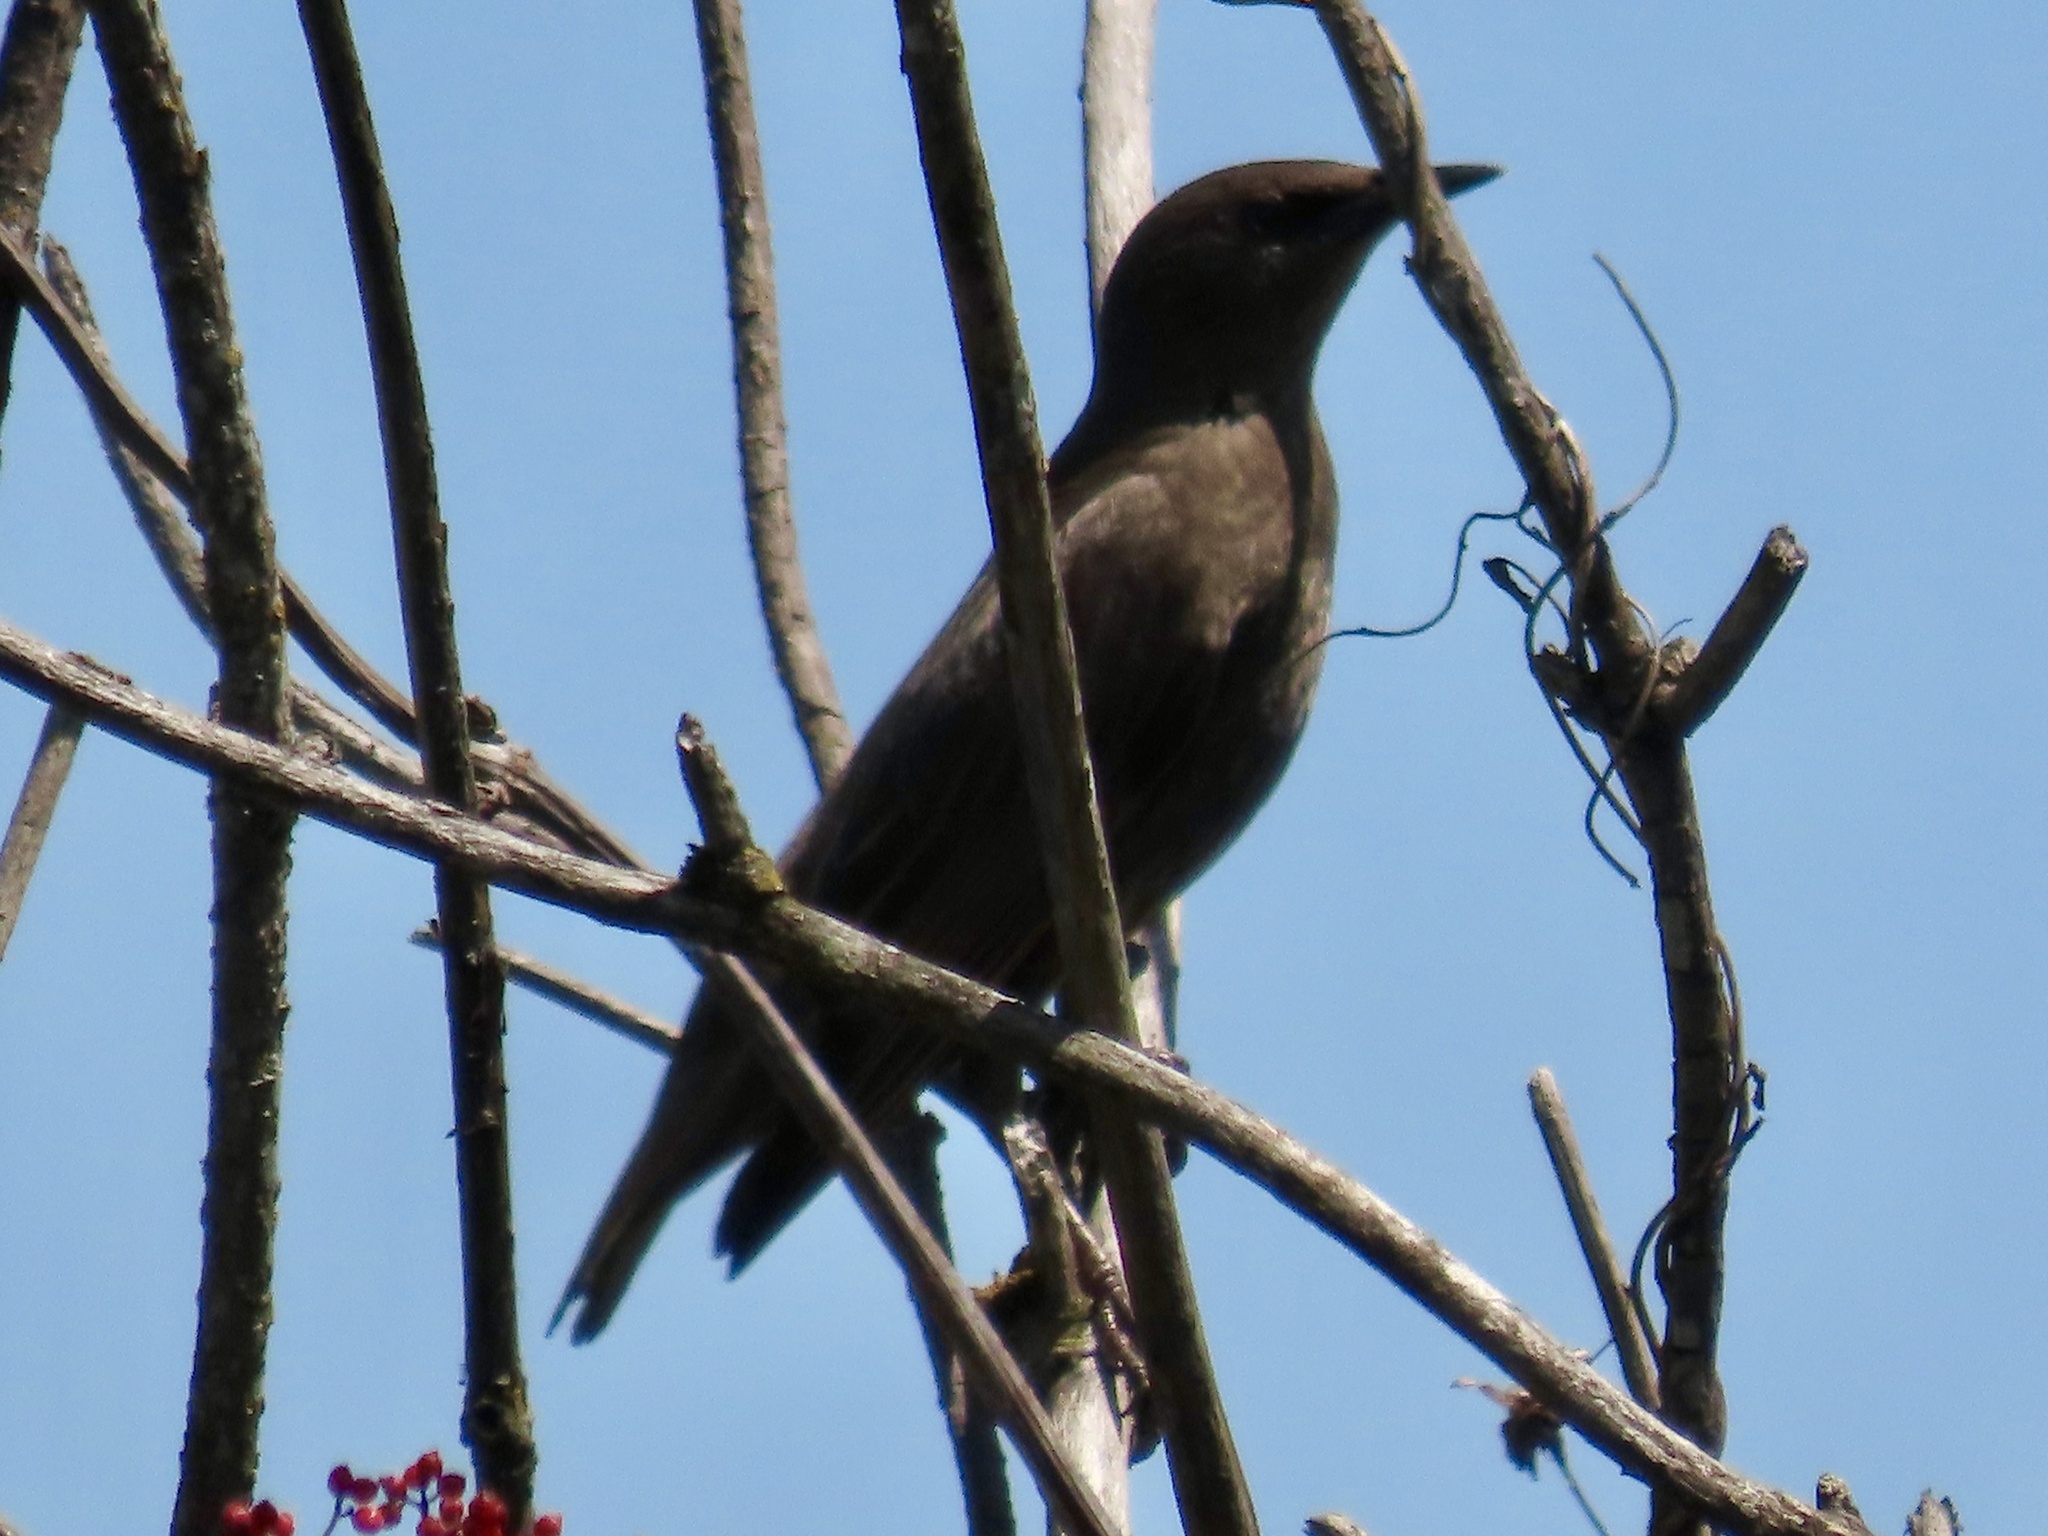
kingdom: Animalia
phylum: Chordata
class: Aves
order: Passeriformes
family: Sturnidae
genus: Sturnus
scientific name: Sturnus vulgaris
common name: Common starling
